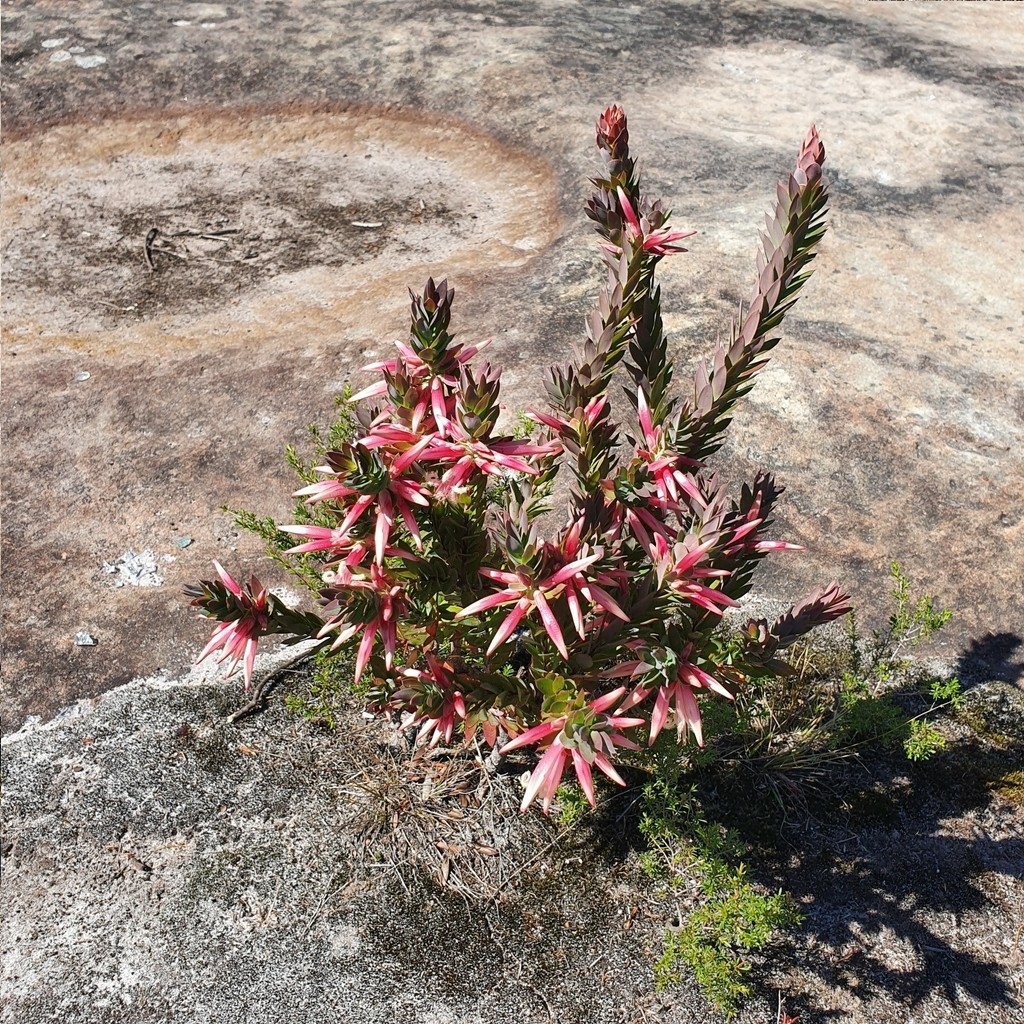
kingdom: Plantae
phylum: Tracheophyta
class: Magnoliopsida
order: Ericales
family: Ericaceae
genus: Styphelia
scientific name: Styphelia triflora
